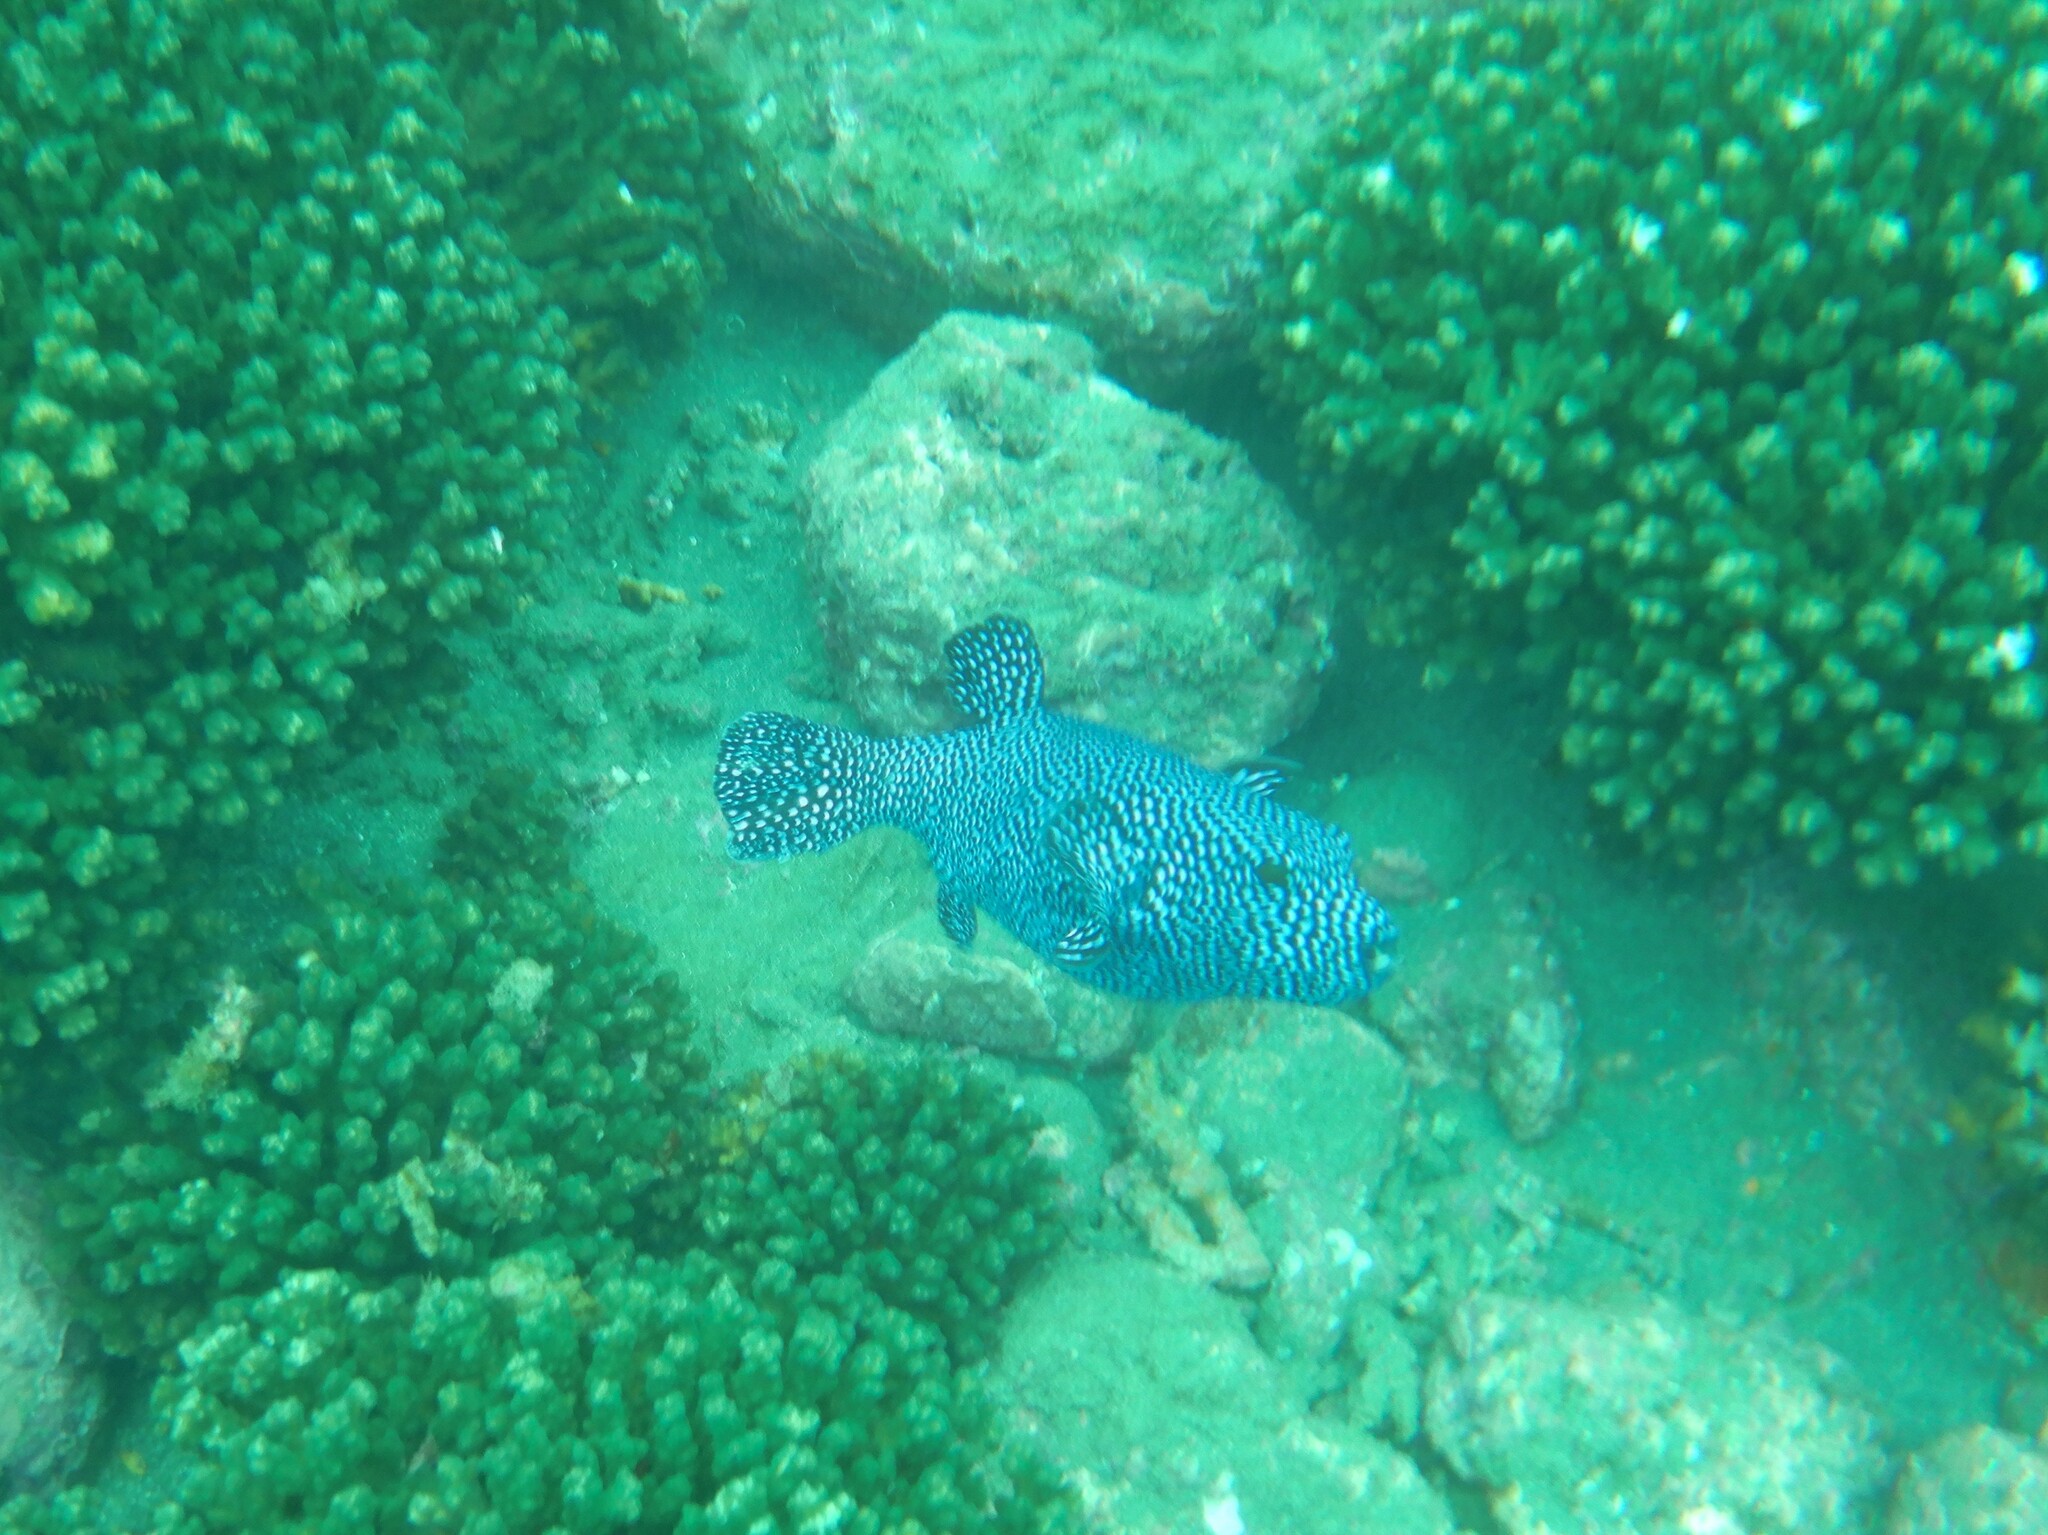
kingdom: Animalia
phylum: Chordata
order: Tetraodontiformes
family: Tetraodontidae
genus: Arothron
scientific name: Arothron meleagris
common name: Guinea-fowl pufferfish
